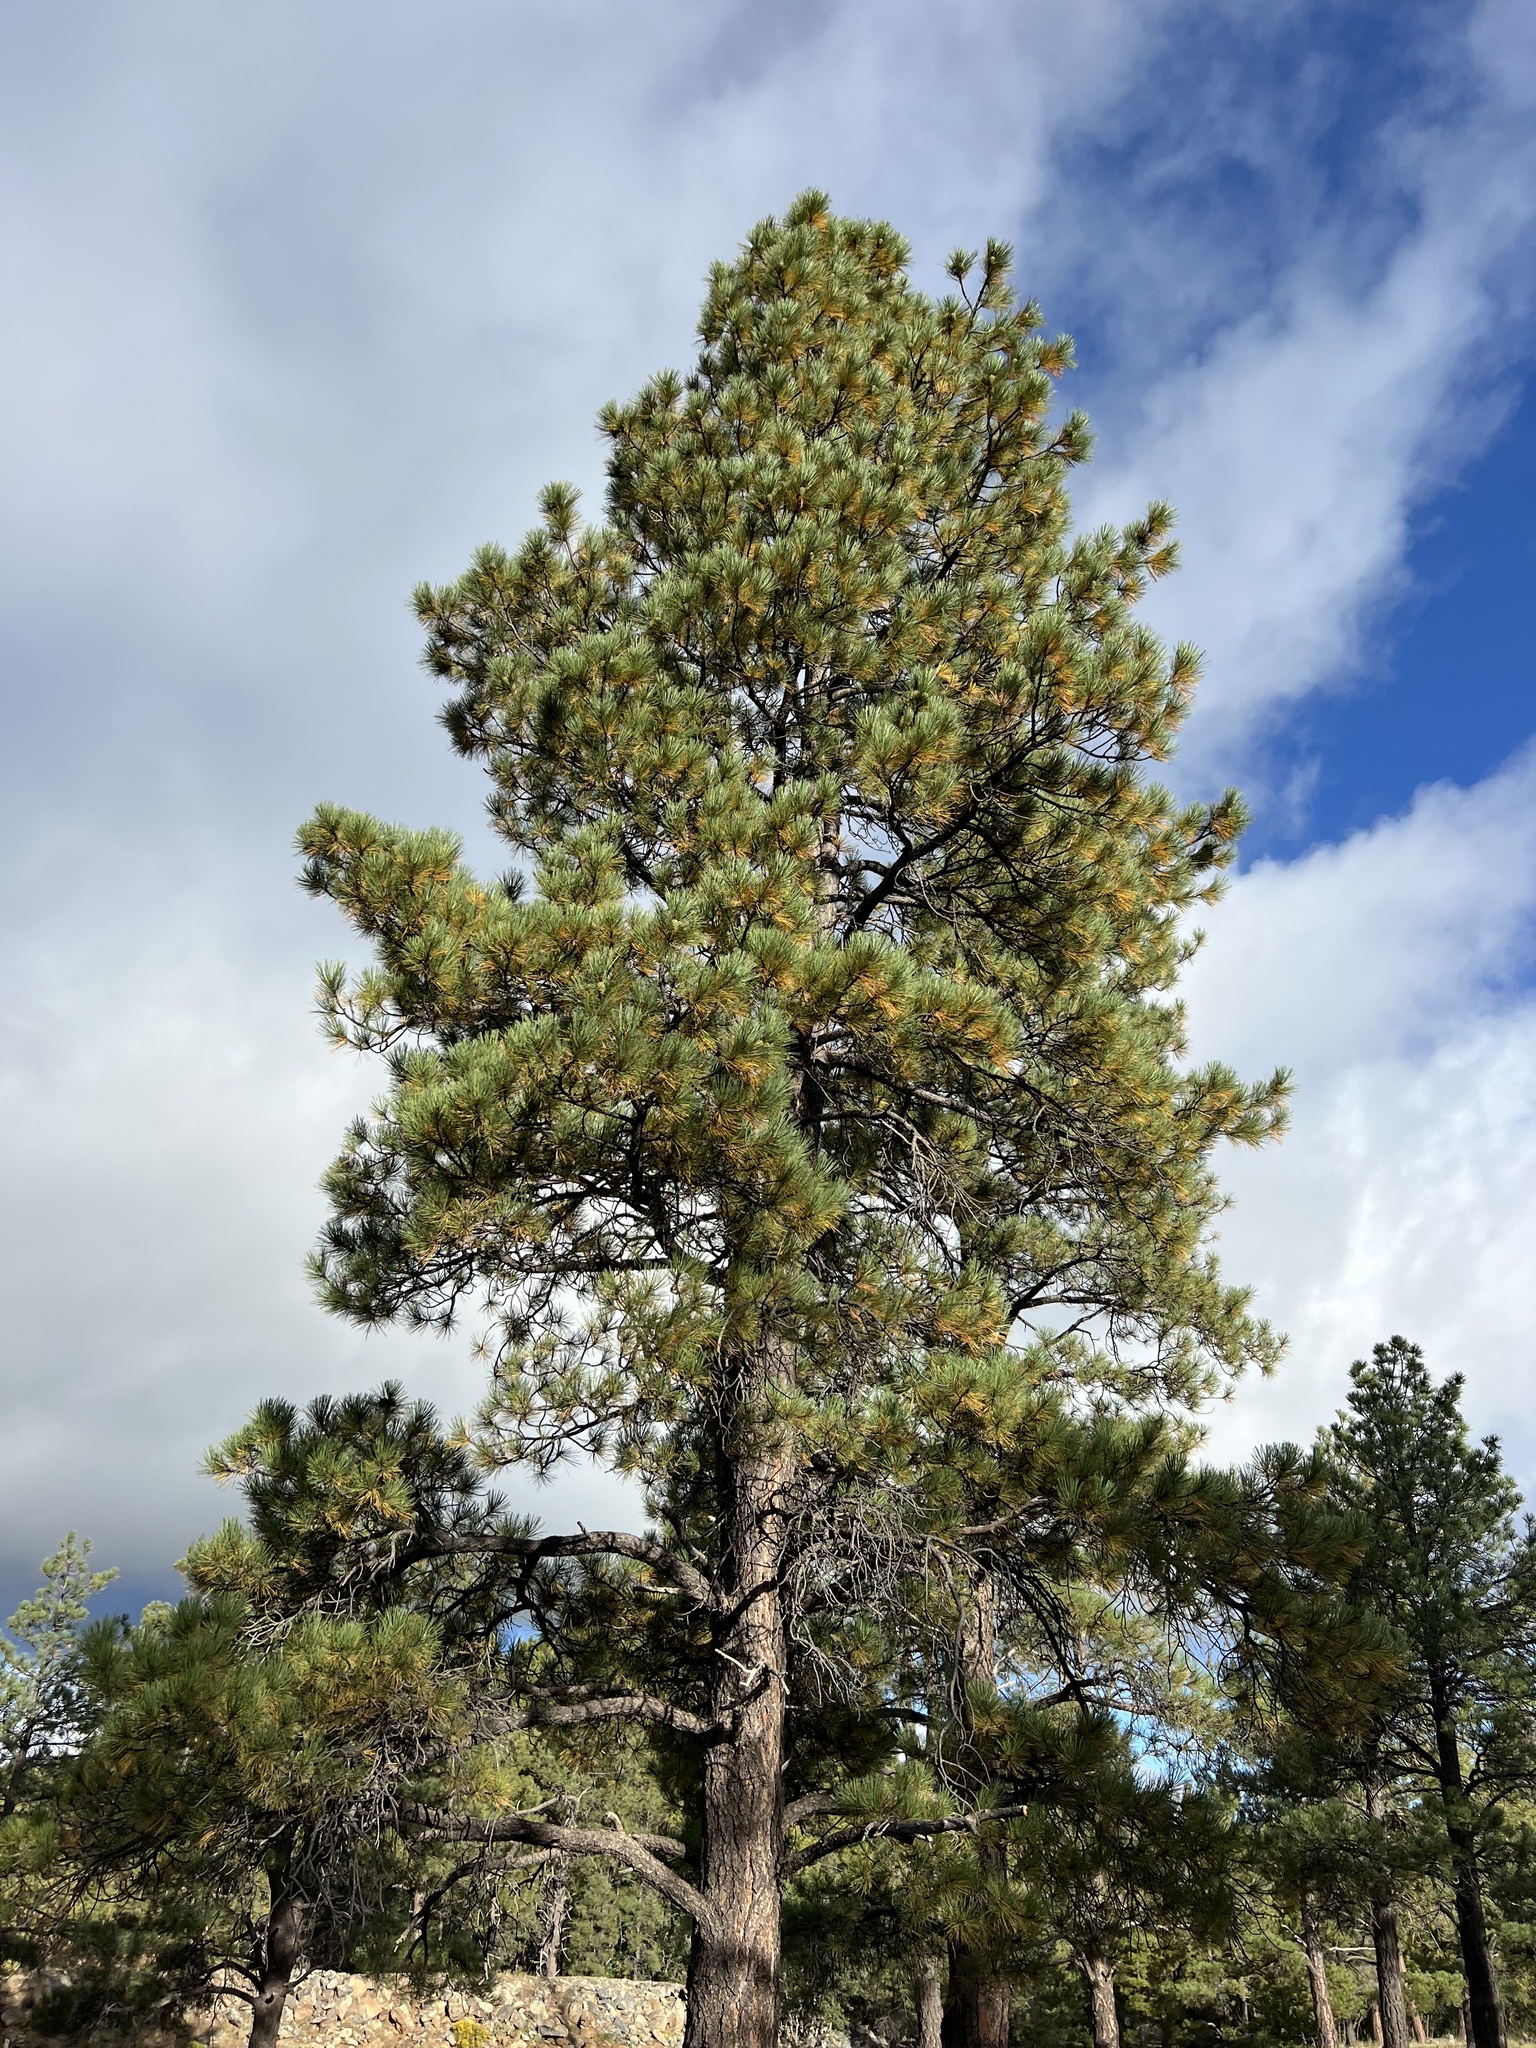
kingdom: Plantae
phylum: Tracheophyta
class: Pinopsida
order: Pinales
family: Pinaceae
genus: Pinus
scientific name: Pinus ponderosa
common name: Western yellow-pine
